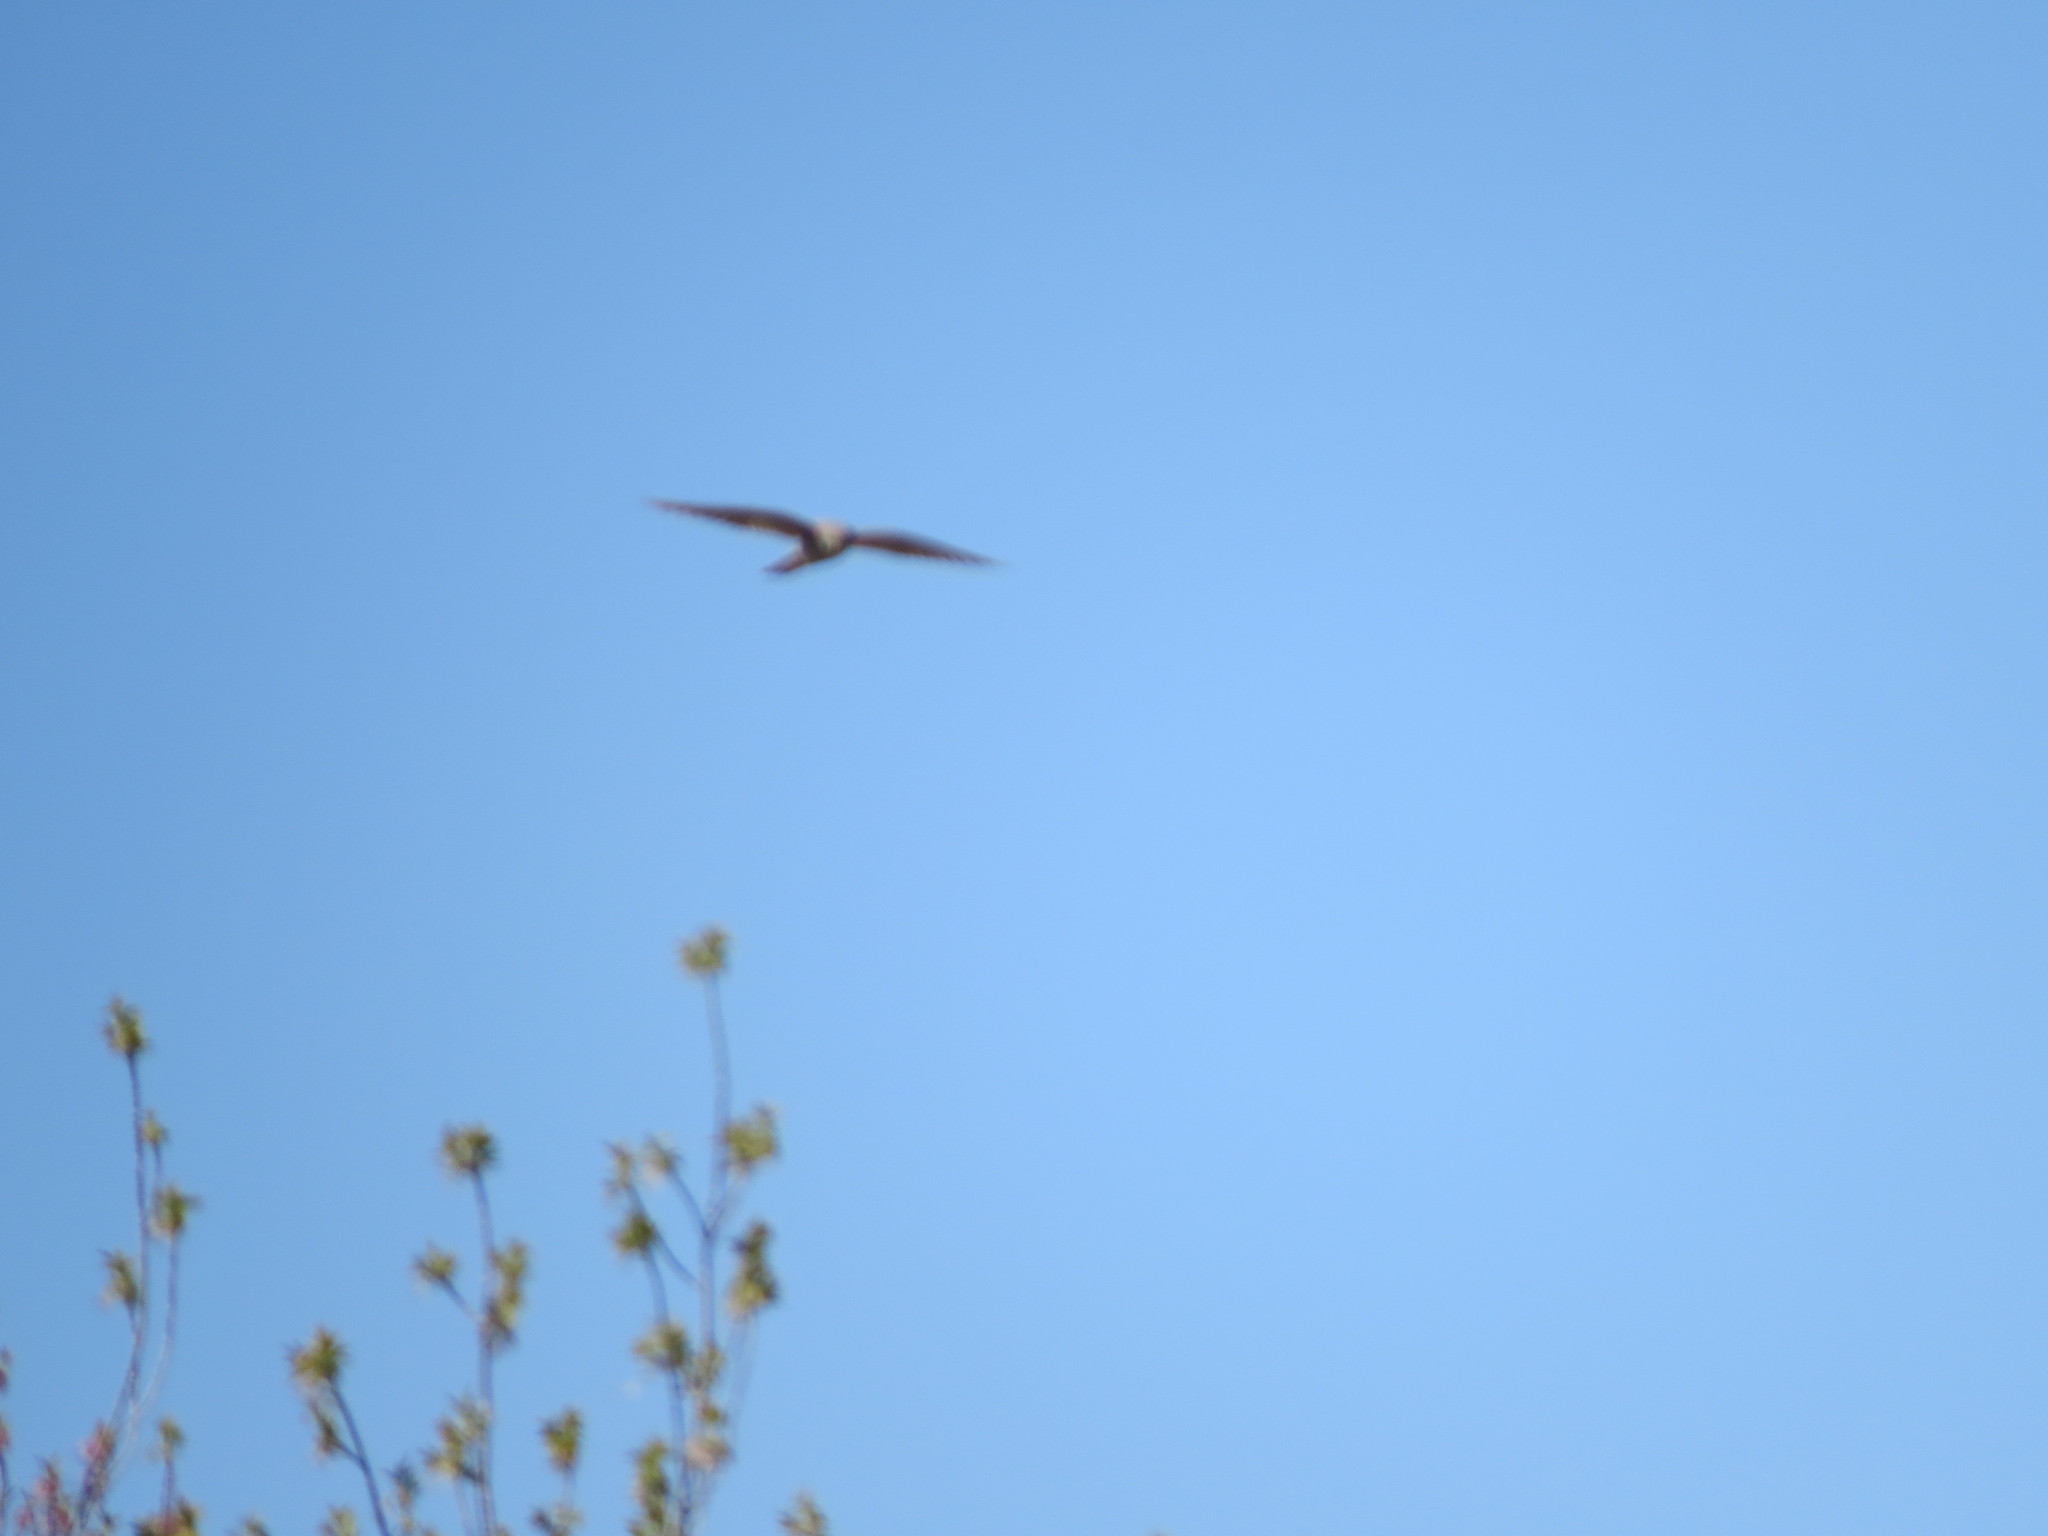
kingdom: Animalia
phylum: Chordata
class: Aves
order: Falconiformes
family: Falconidae
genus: Falco
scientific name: Falco tinnunculus
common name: Common kestrel
